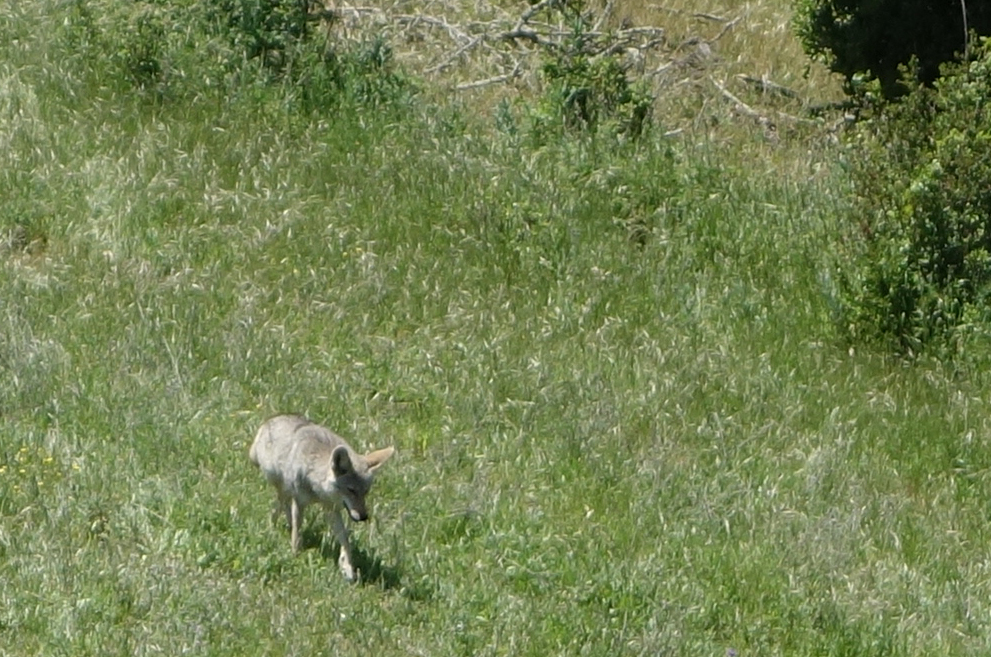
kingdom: Animalia
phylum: Chordata
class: Mammalia
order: Carnivora
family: Canidae
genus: Canis
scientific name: Canis latrans
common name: Coyote
